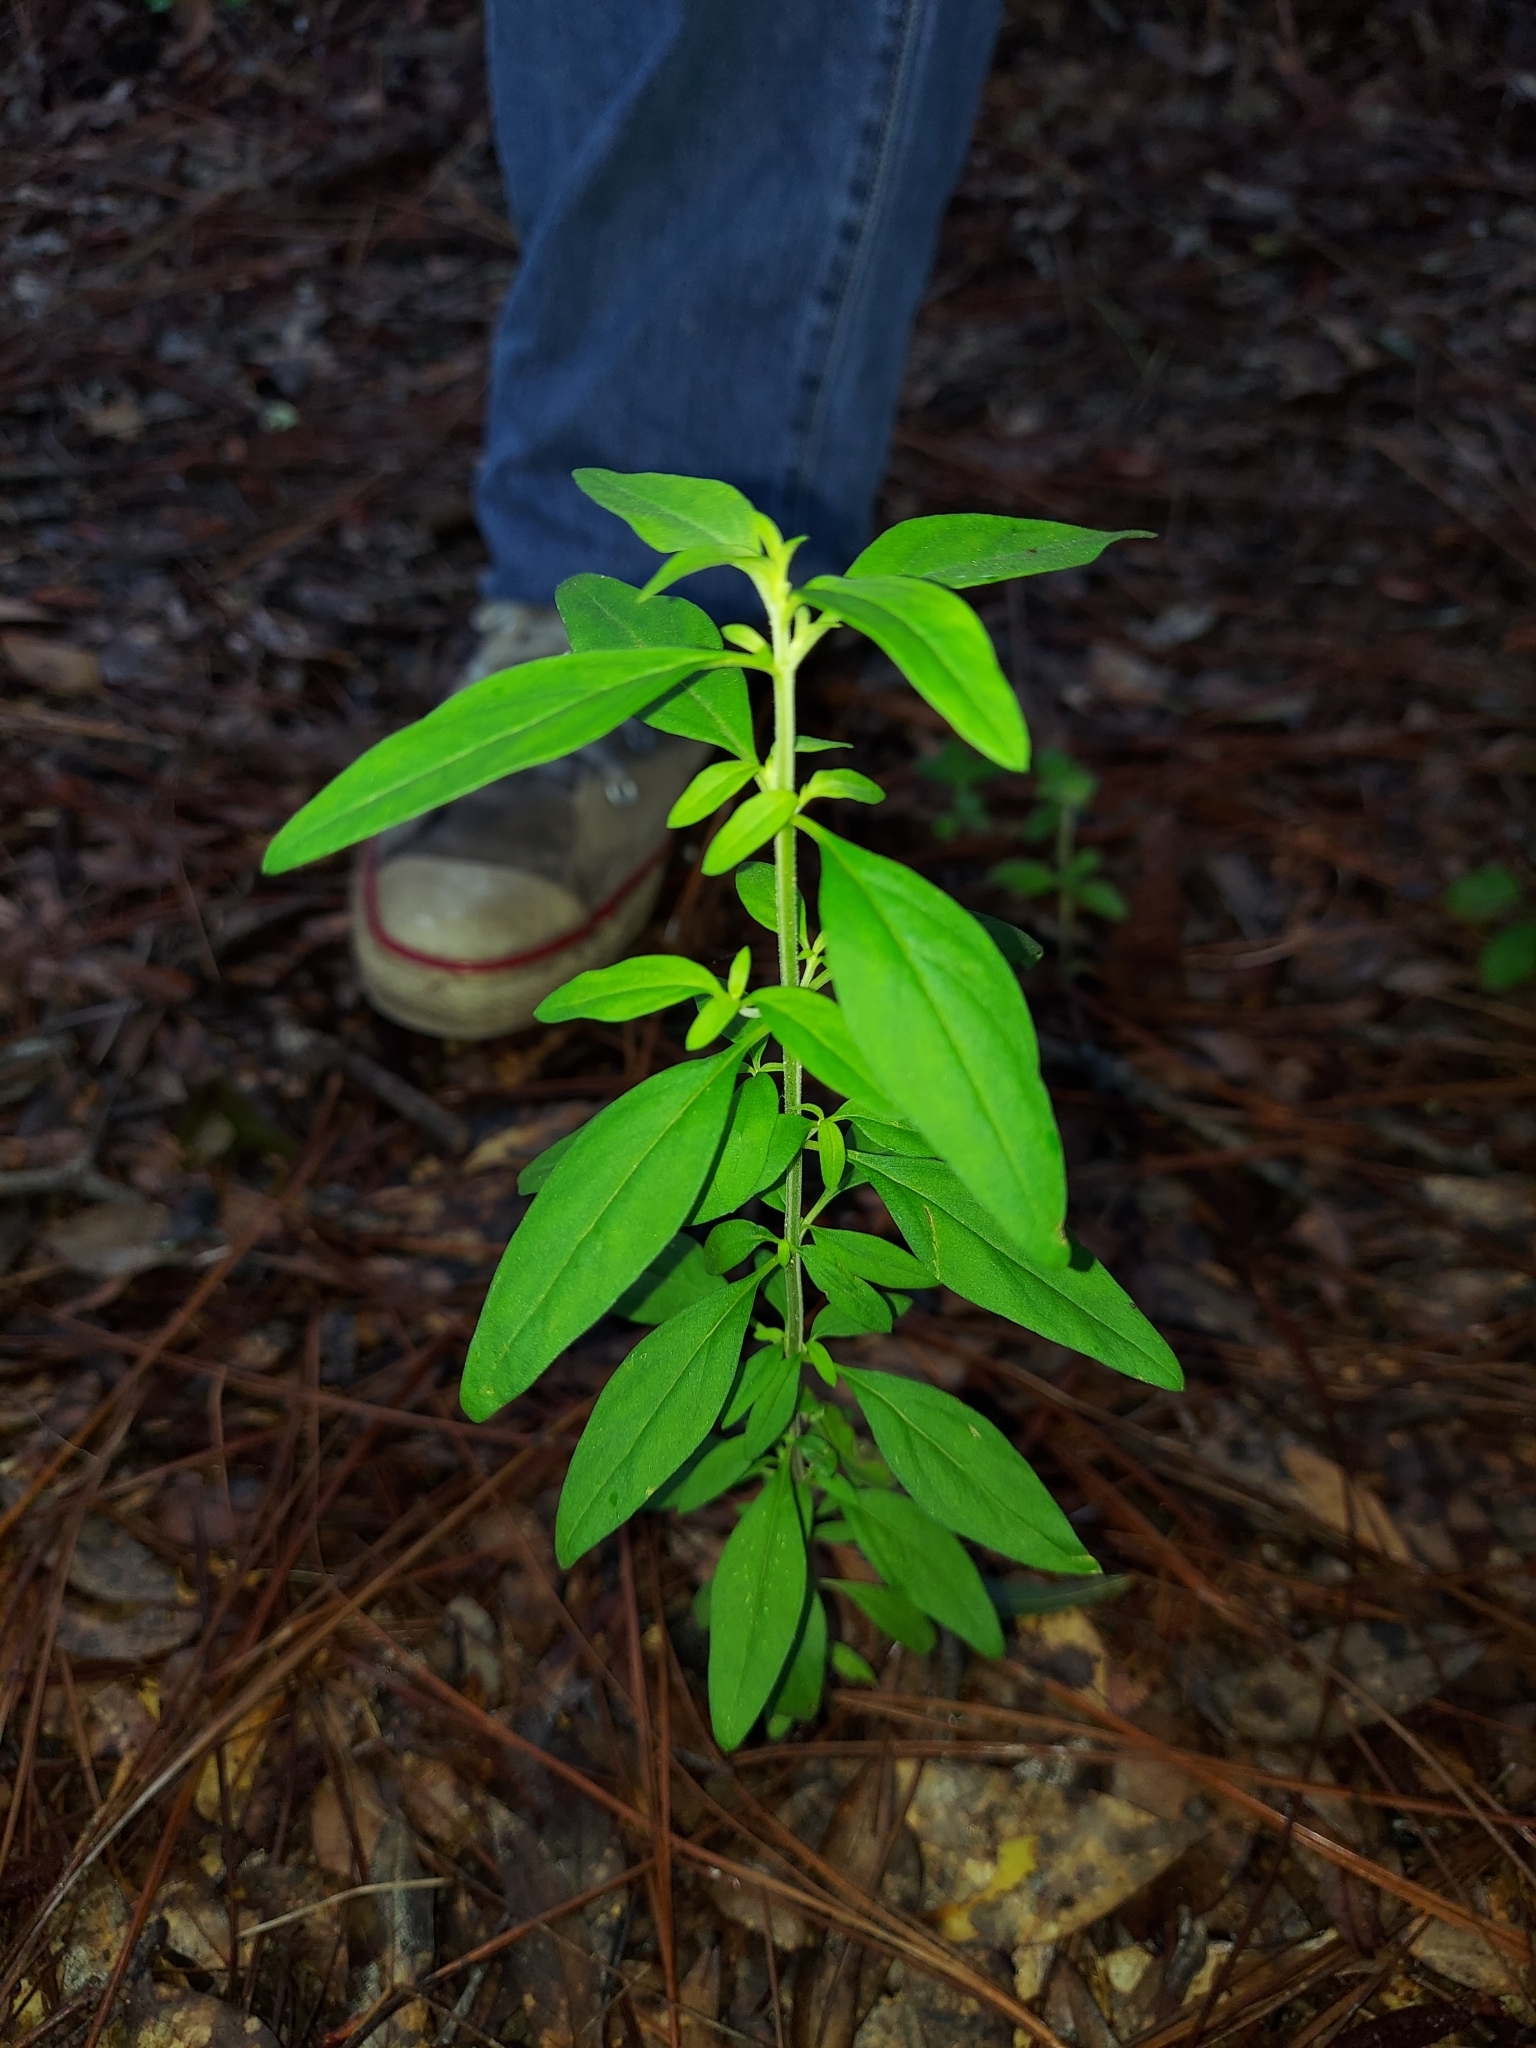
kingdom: Plantae
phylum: Tracheophyta
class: Magnoliopsida
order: Lamiales
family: Lamiaceae
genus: Trichostema
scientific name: Trichostema fruticosum
